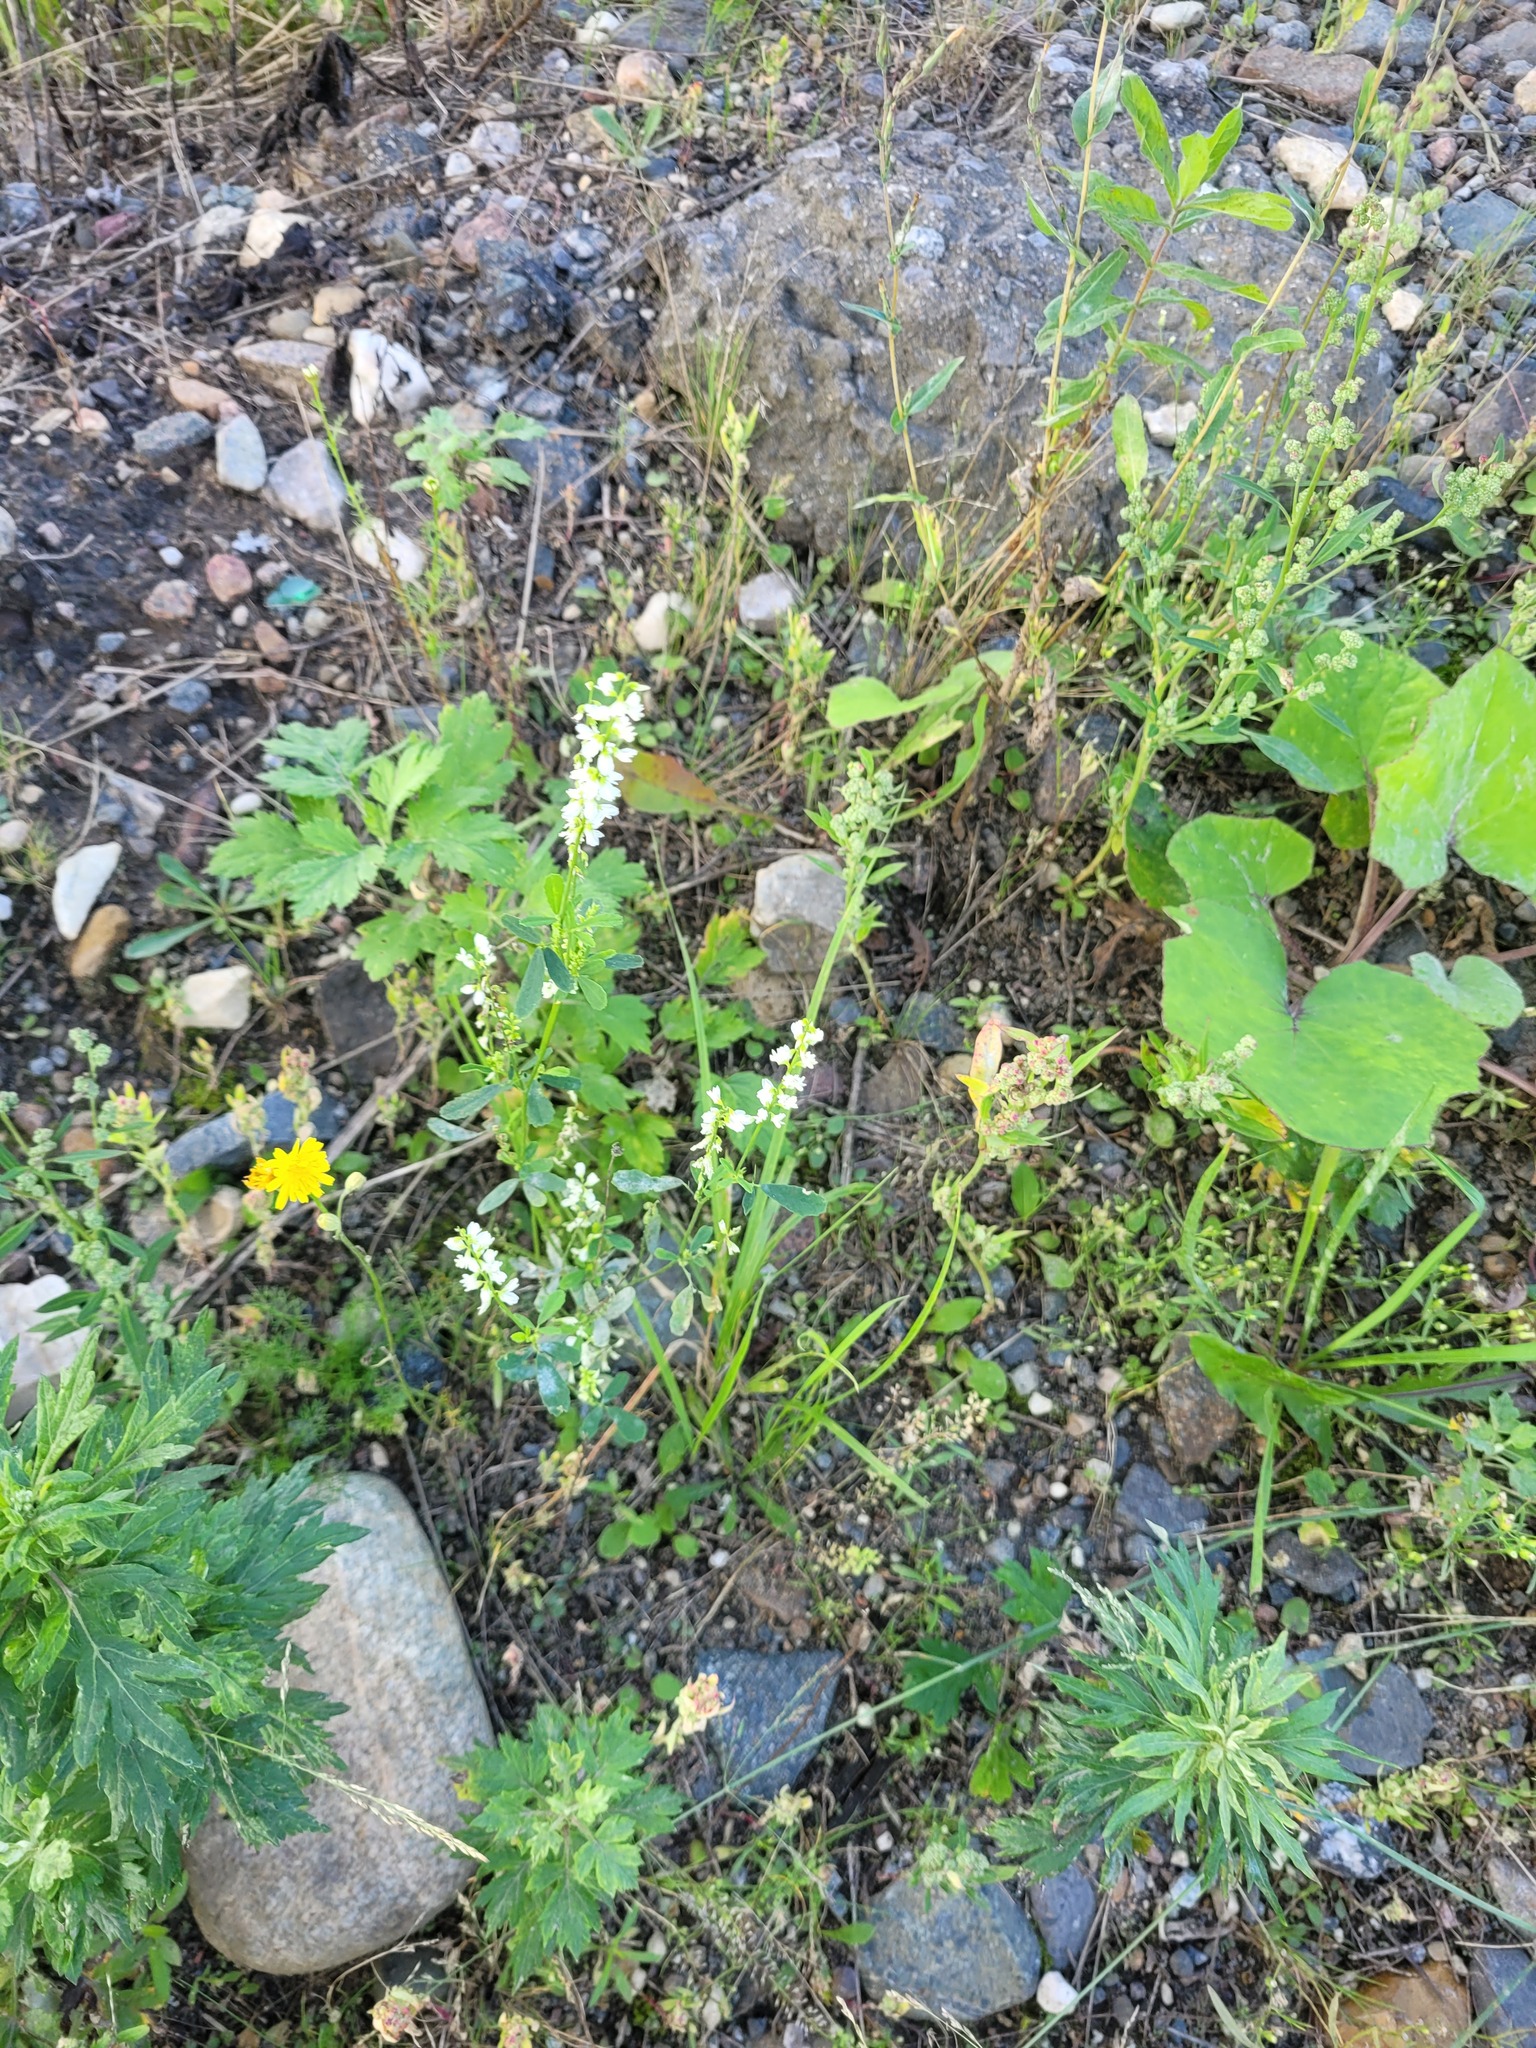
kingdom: Plantae
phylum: Tracheophyta
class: Magnoliopsida
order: Fabales
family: Fabaceae
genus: Melilotus
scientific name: Melilotus albus
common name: White melilot
